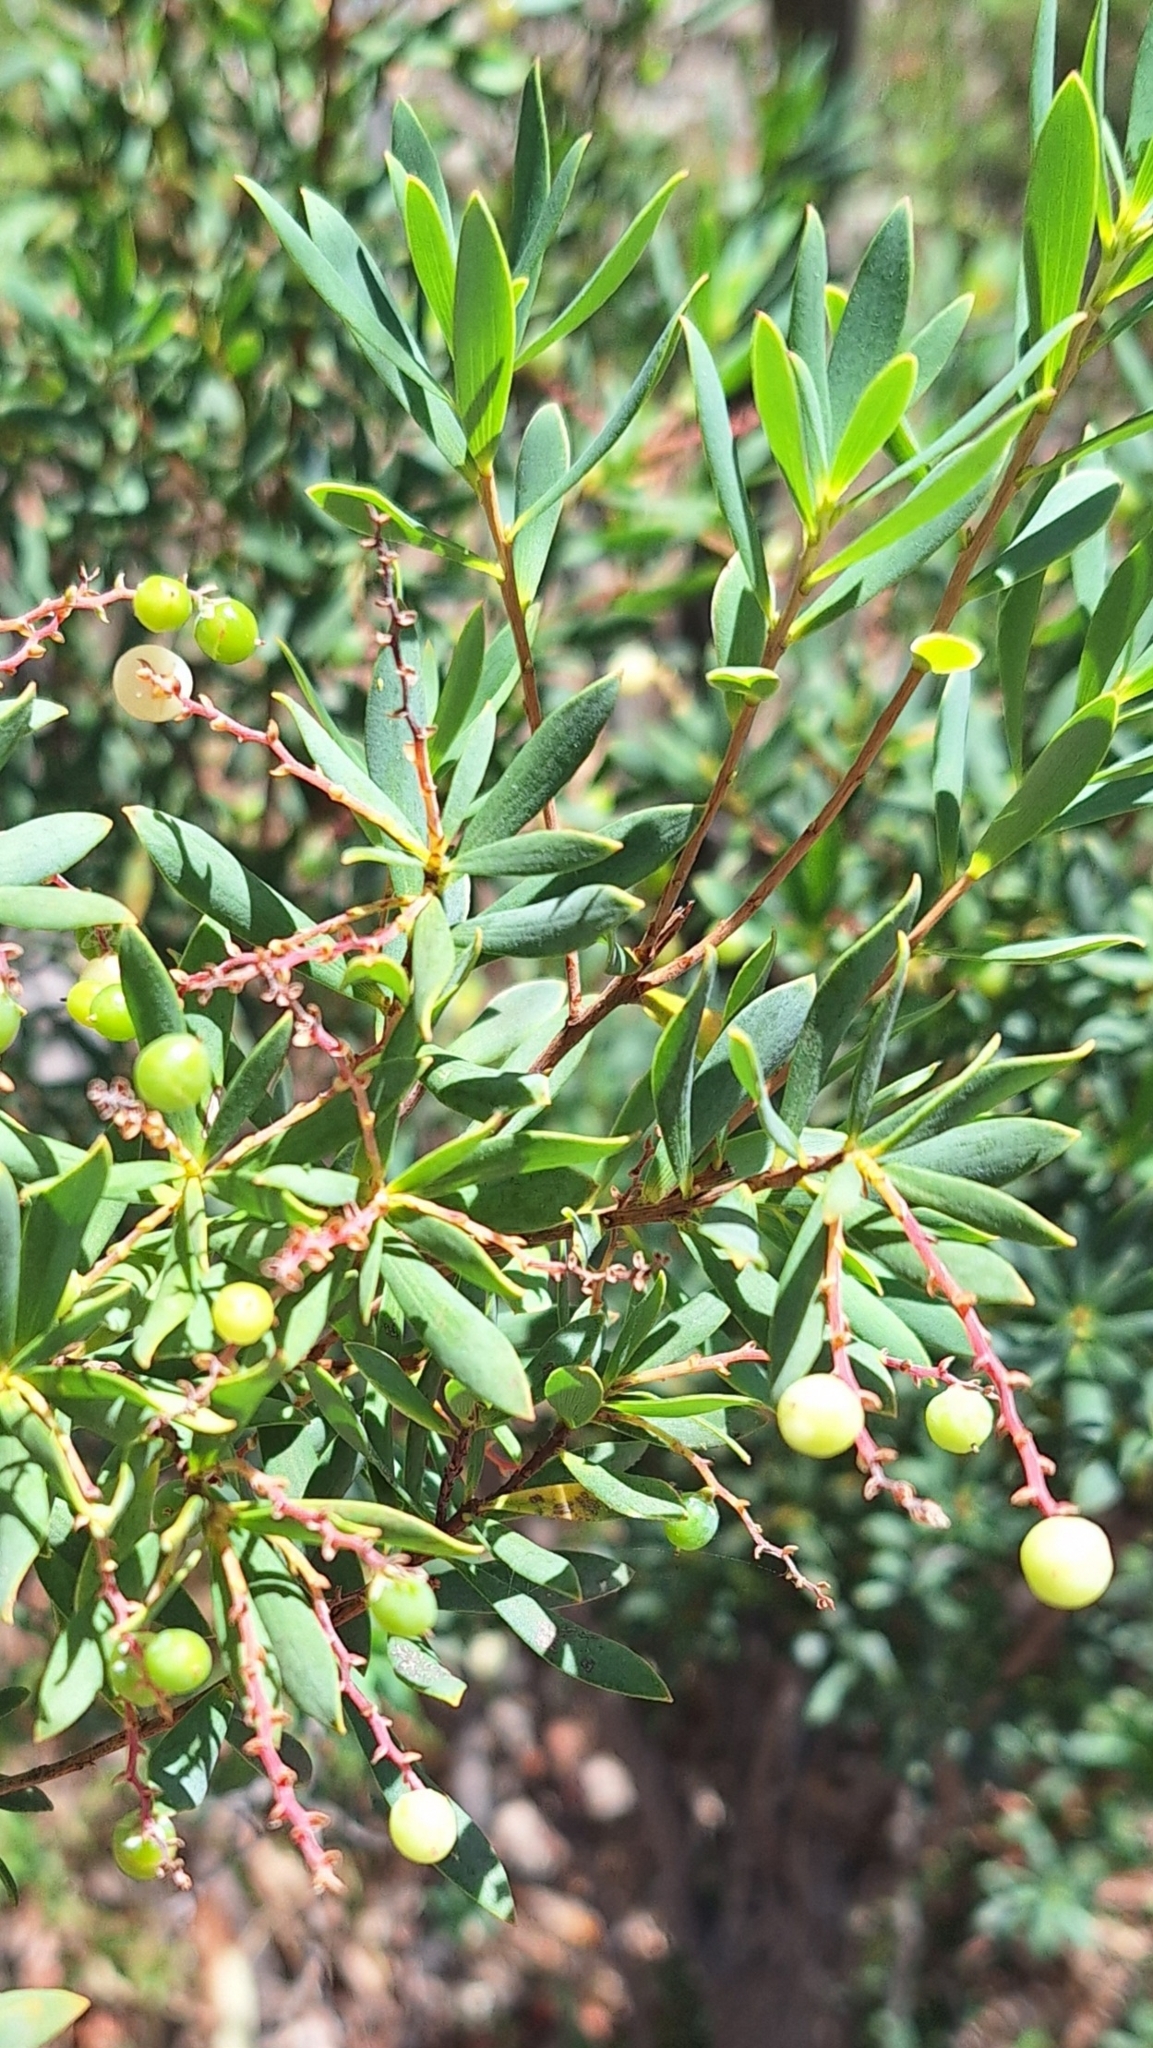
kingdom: Plantae
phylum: Tracheophyta
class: Magnoliopsida
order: Ericales
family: Ericaceae
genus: Leptecophylla
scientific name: Leptecophylla parvifolia
